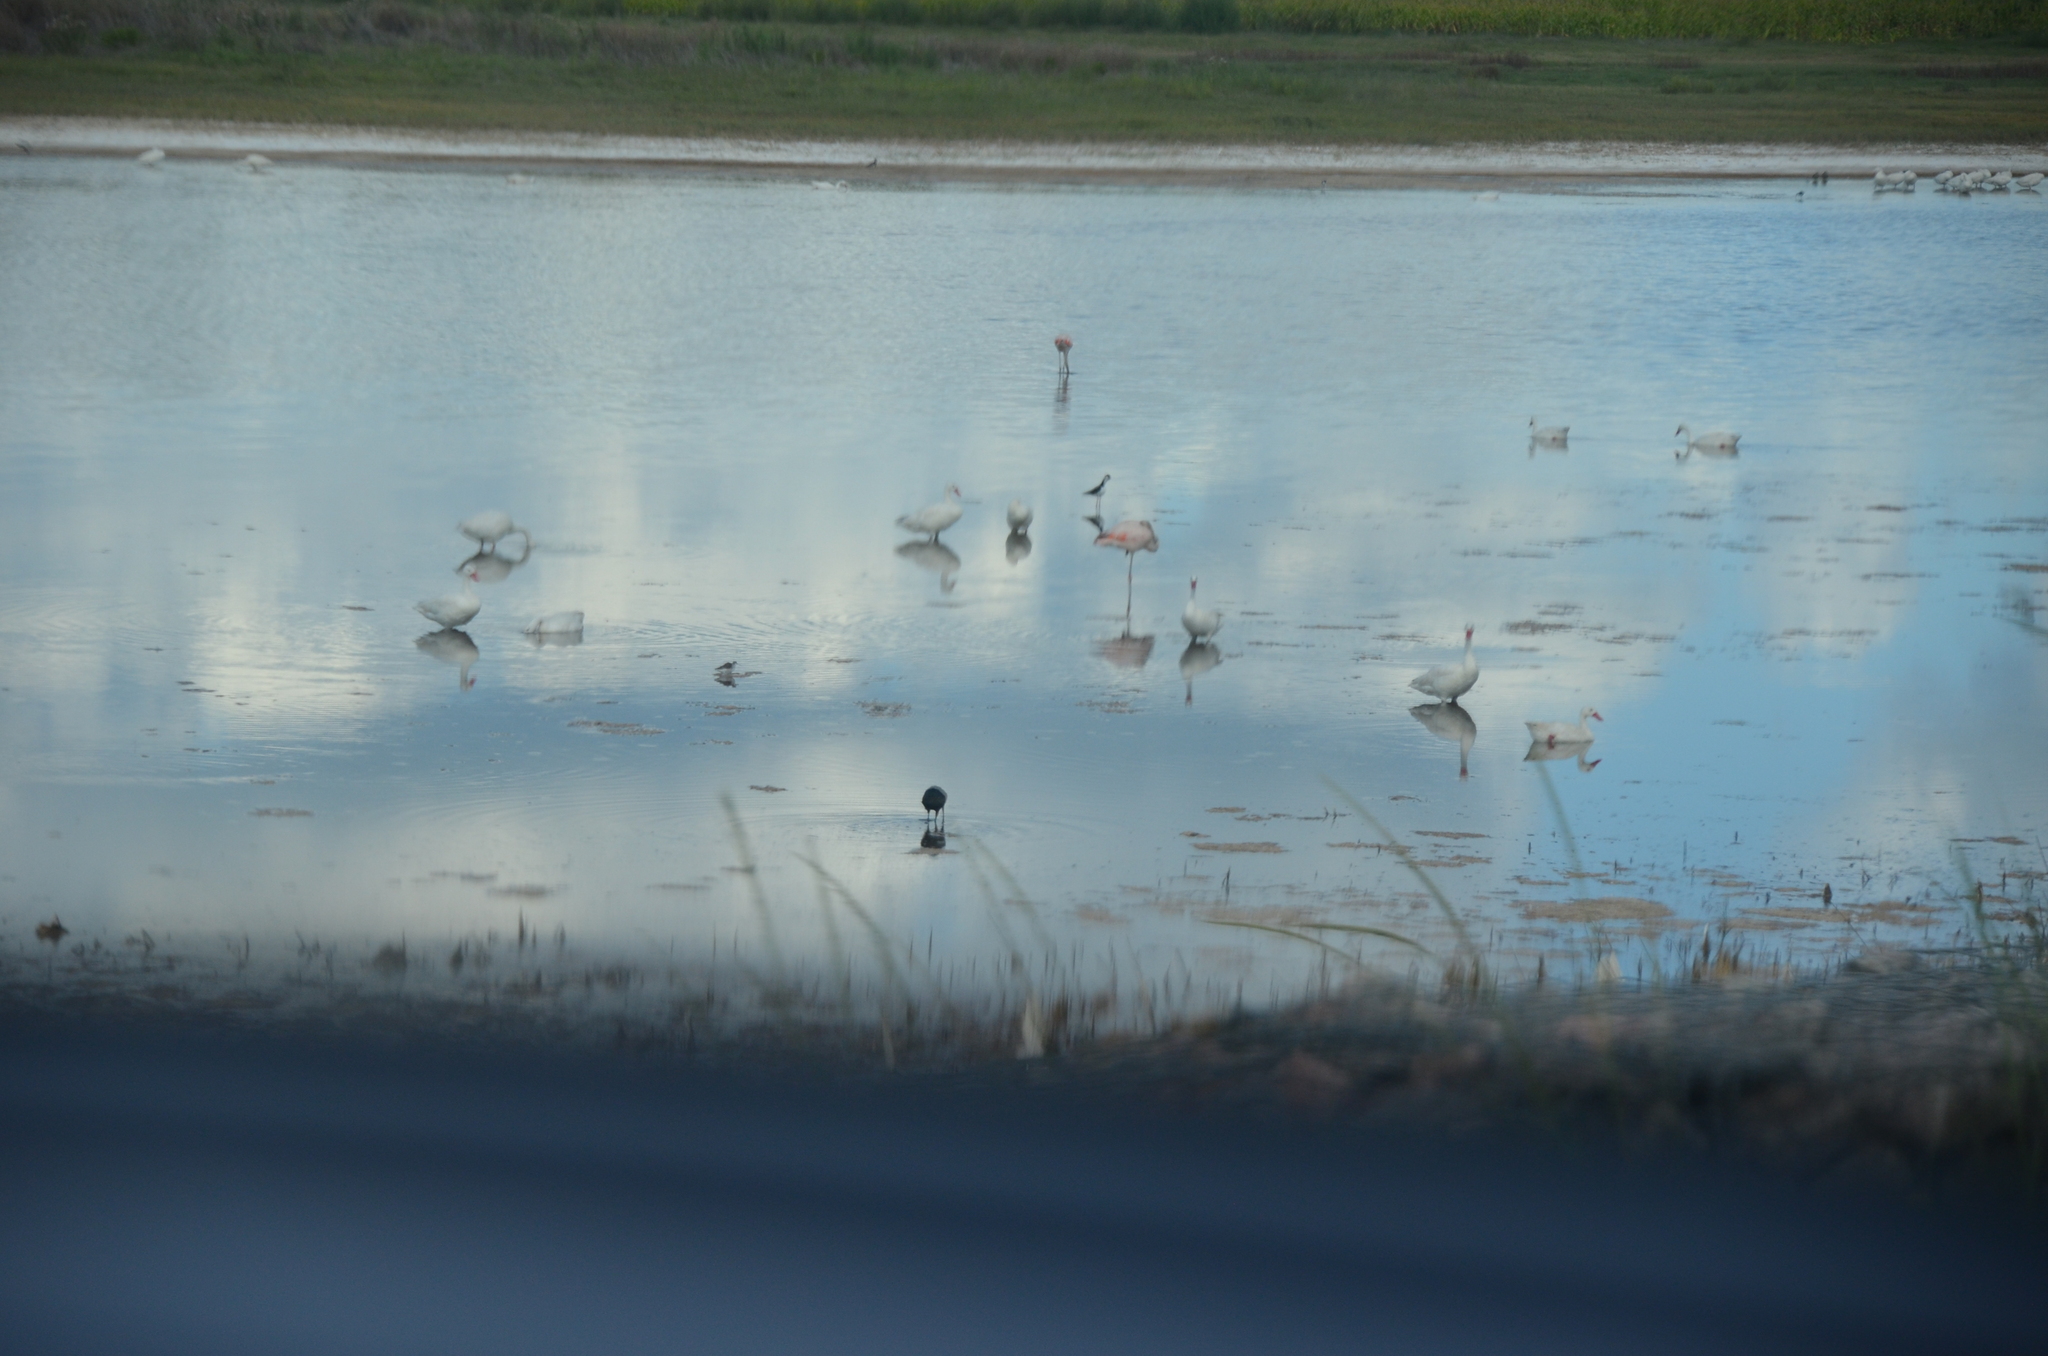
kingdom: Animalia
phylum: Chordata
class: Aves
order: Anseriformes
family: Anatidae
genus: Coscoroba
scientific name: Coscoroba coscoroba
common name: Coscoroba swan
